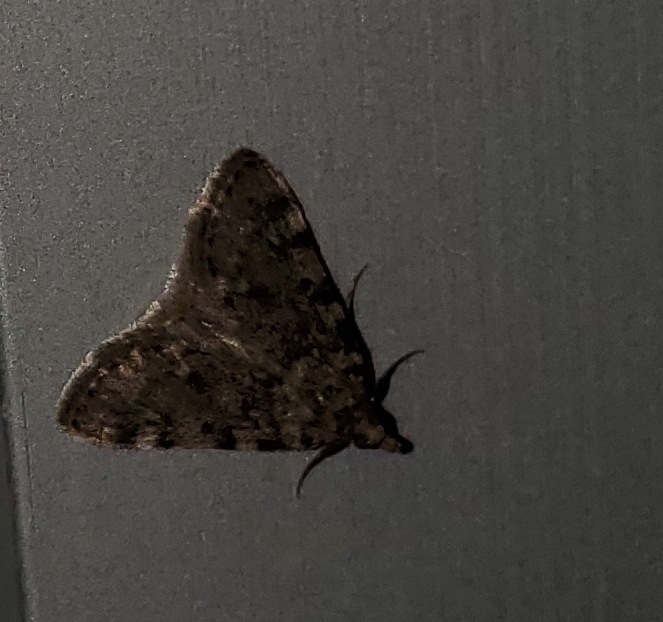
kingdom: Animalia
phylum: Arthropoda
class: Insecta
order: Lepidoptera
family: Pyralidae
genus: Aglossa
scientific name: Aglossa pinguinalis
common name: Large tabby
